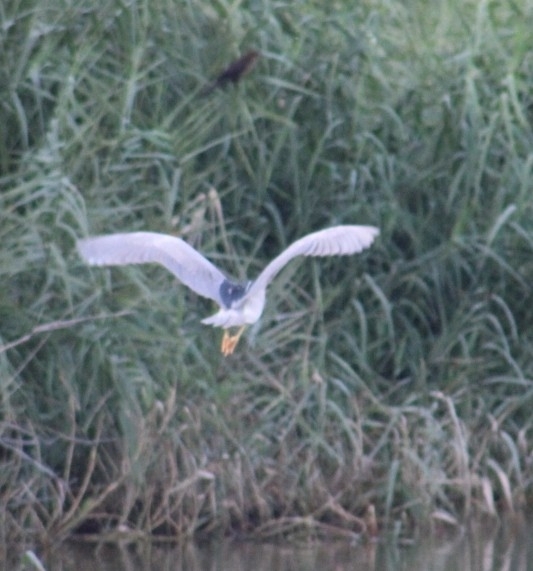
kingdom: Animalia
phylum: Chordata
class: Aves
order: Pelecaniformes
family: Ardeidae
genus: Nycticorax
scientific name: Nycticorax nycticorax
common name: Black-crowned night heron
